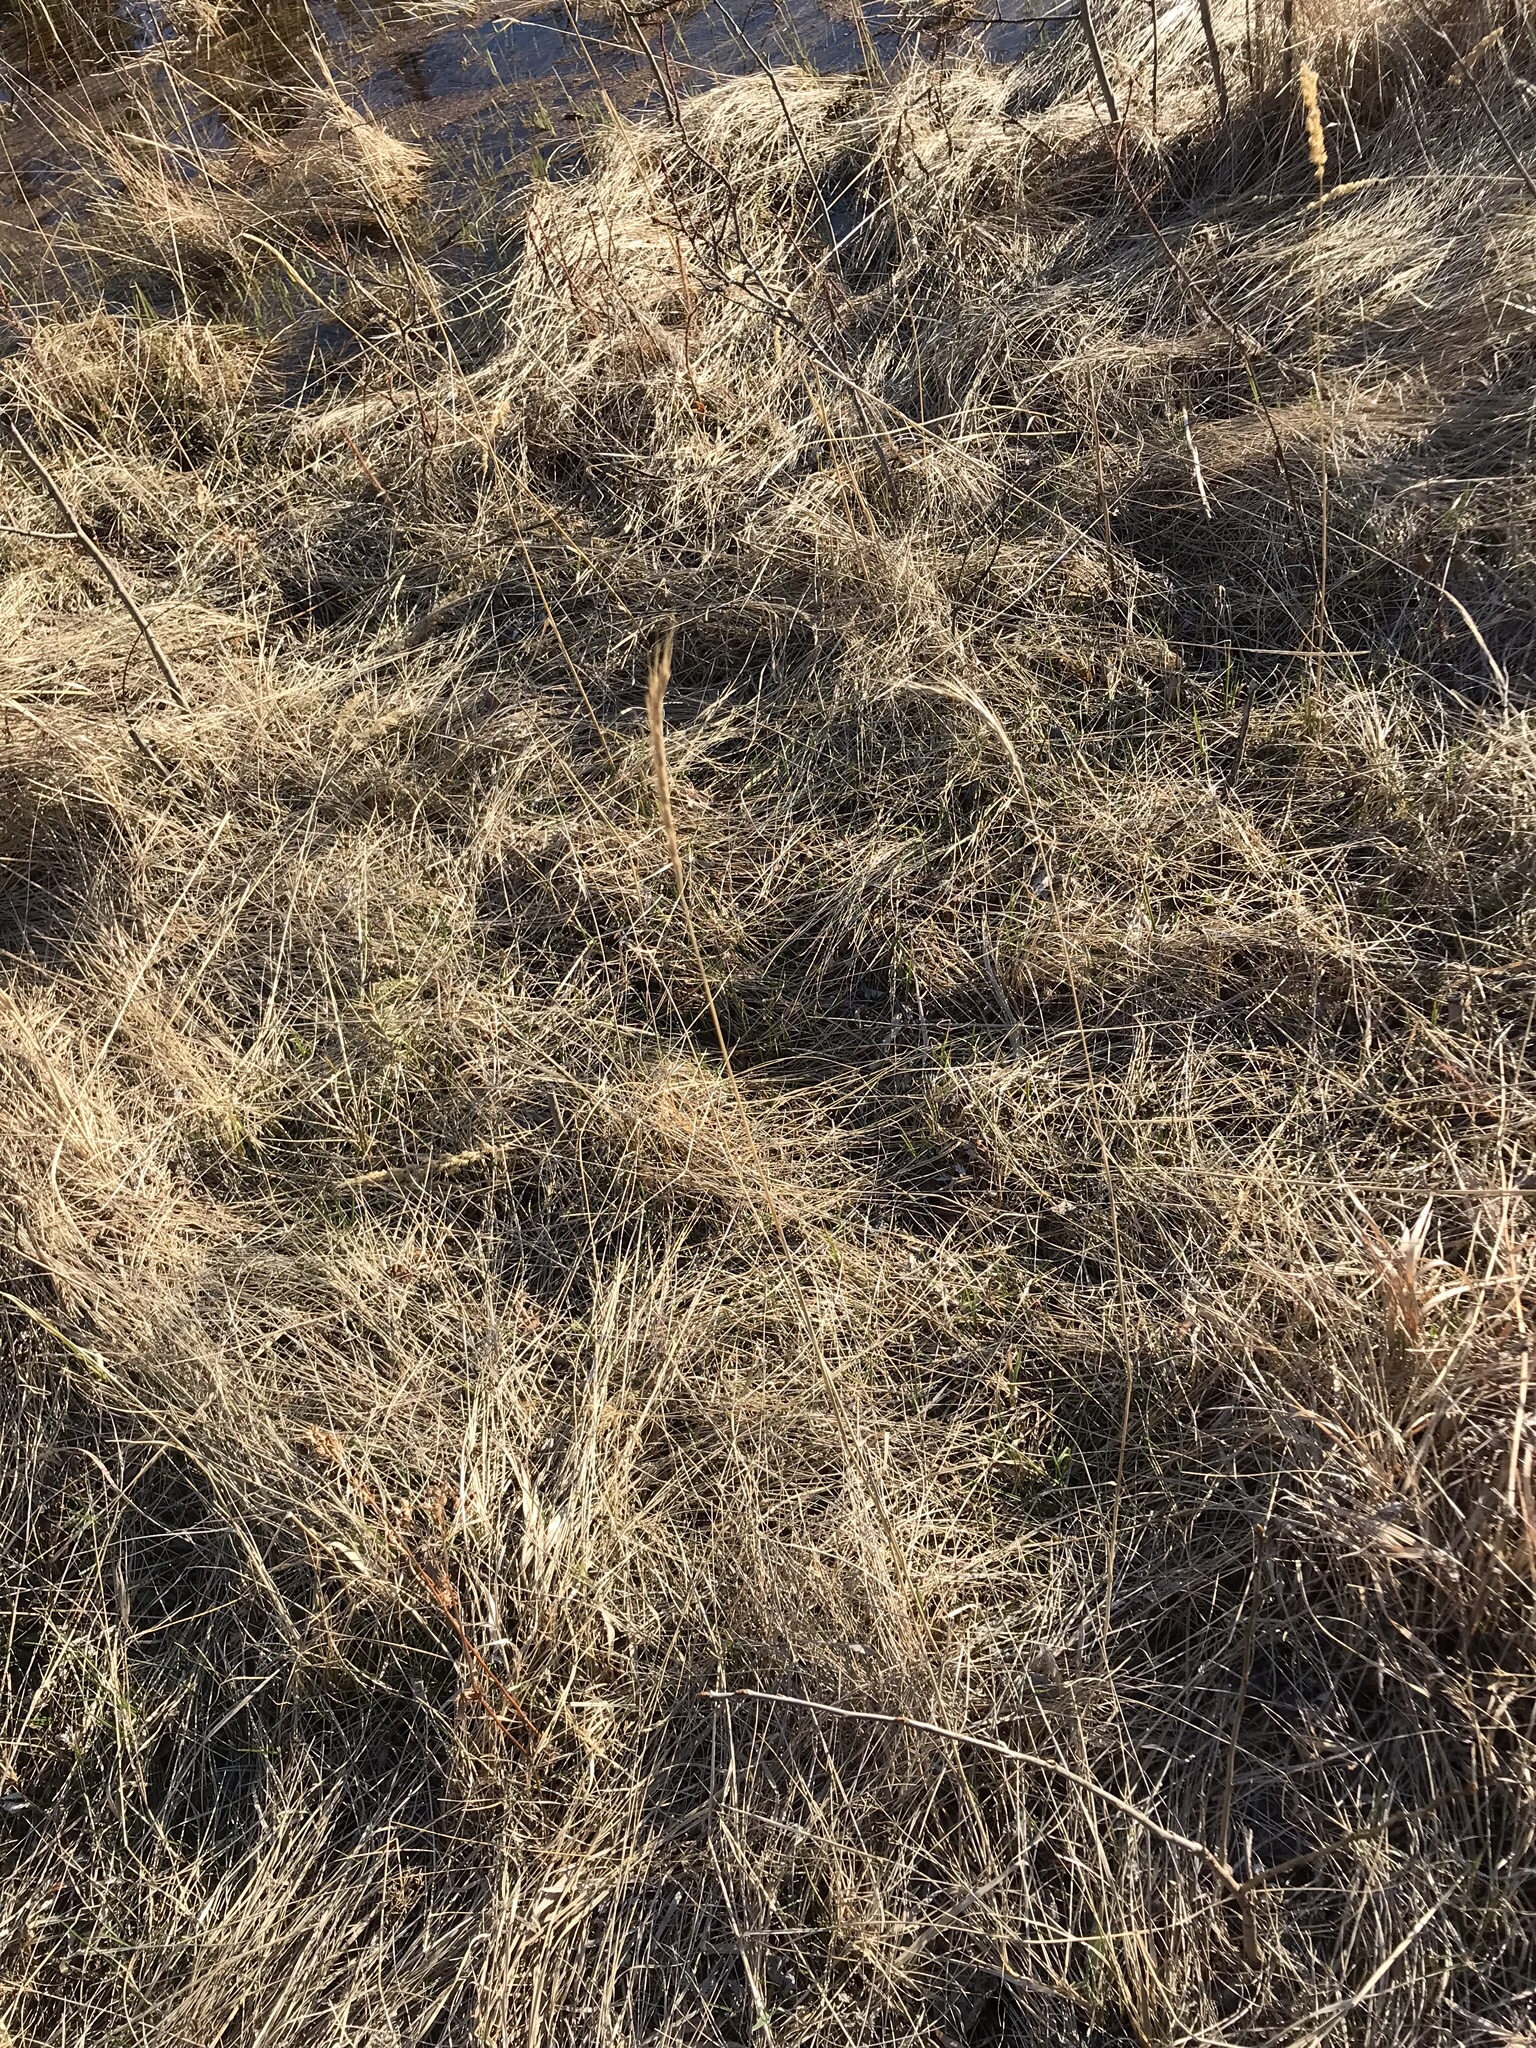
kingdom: Plantae
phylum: Tracheophyta
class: Liliopsida
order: Poales
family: Poaceae
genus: Elymus
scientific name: Elymus violaceus
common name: Arctic wheatgrass
